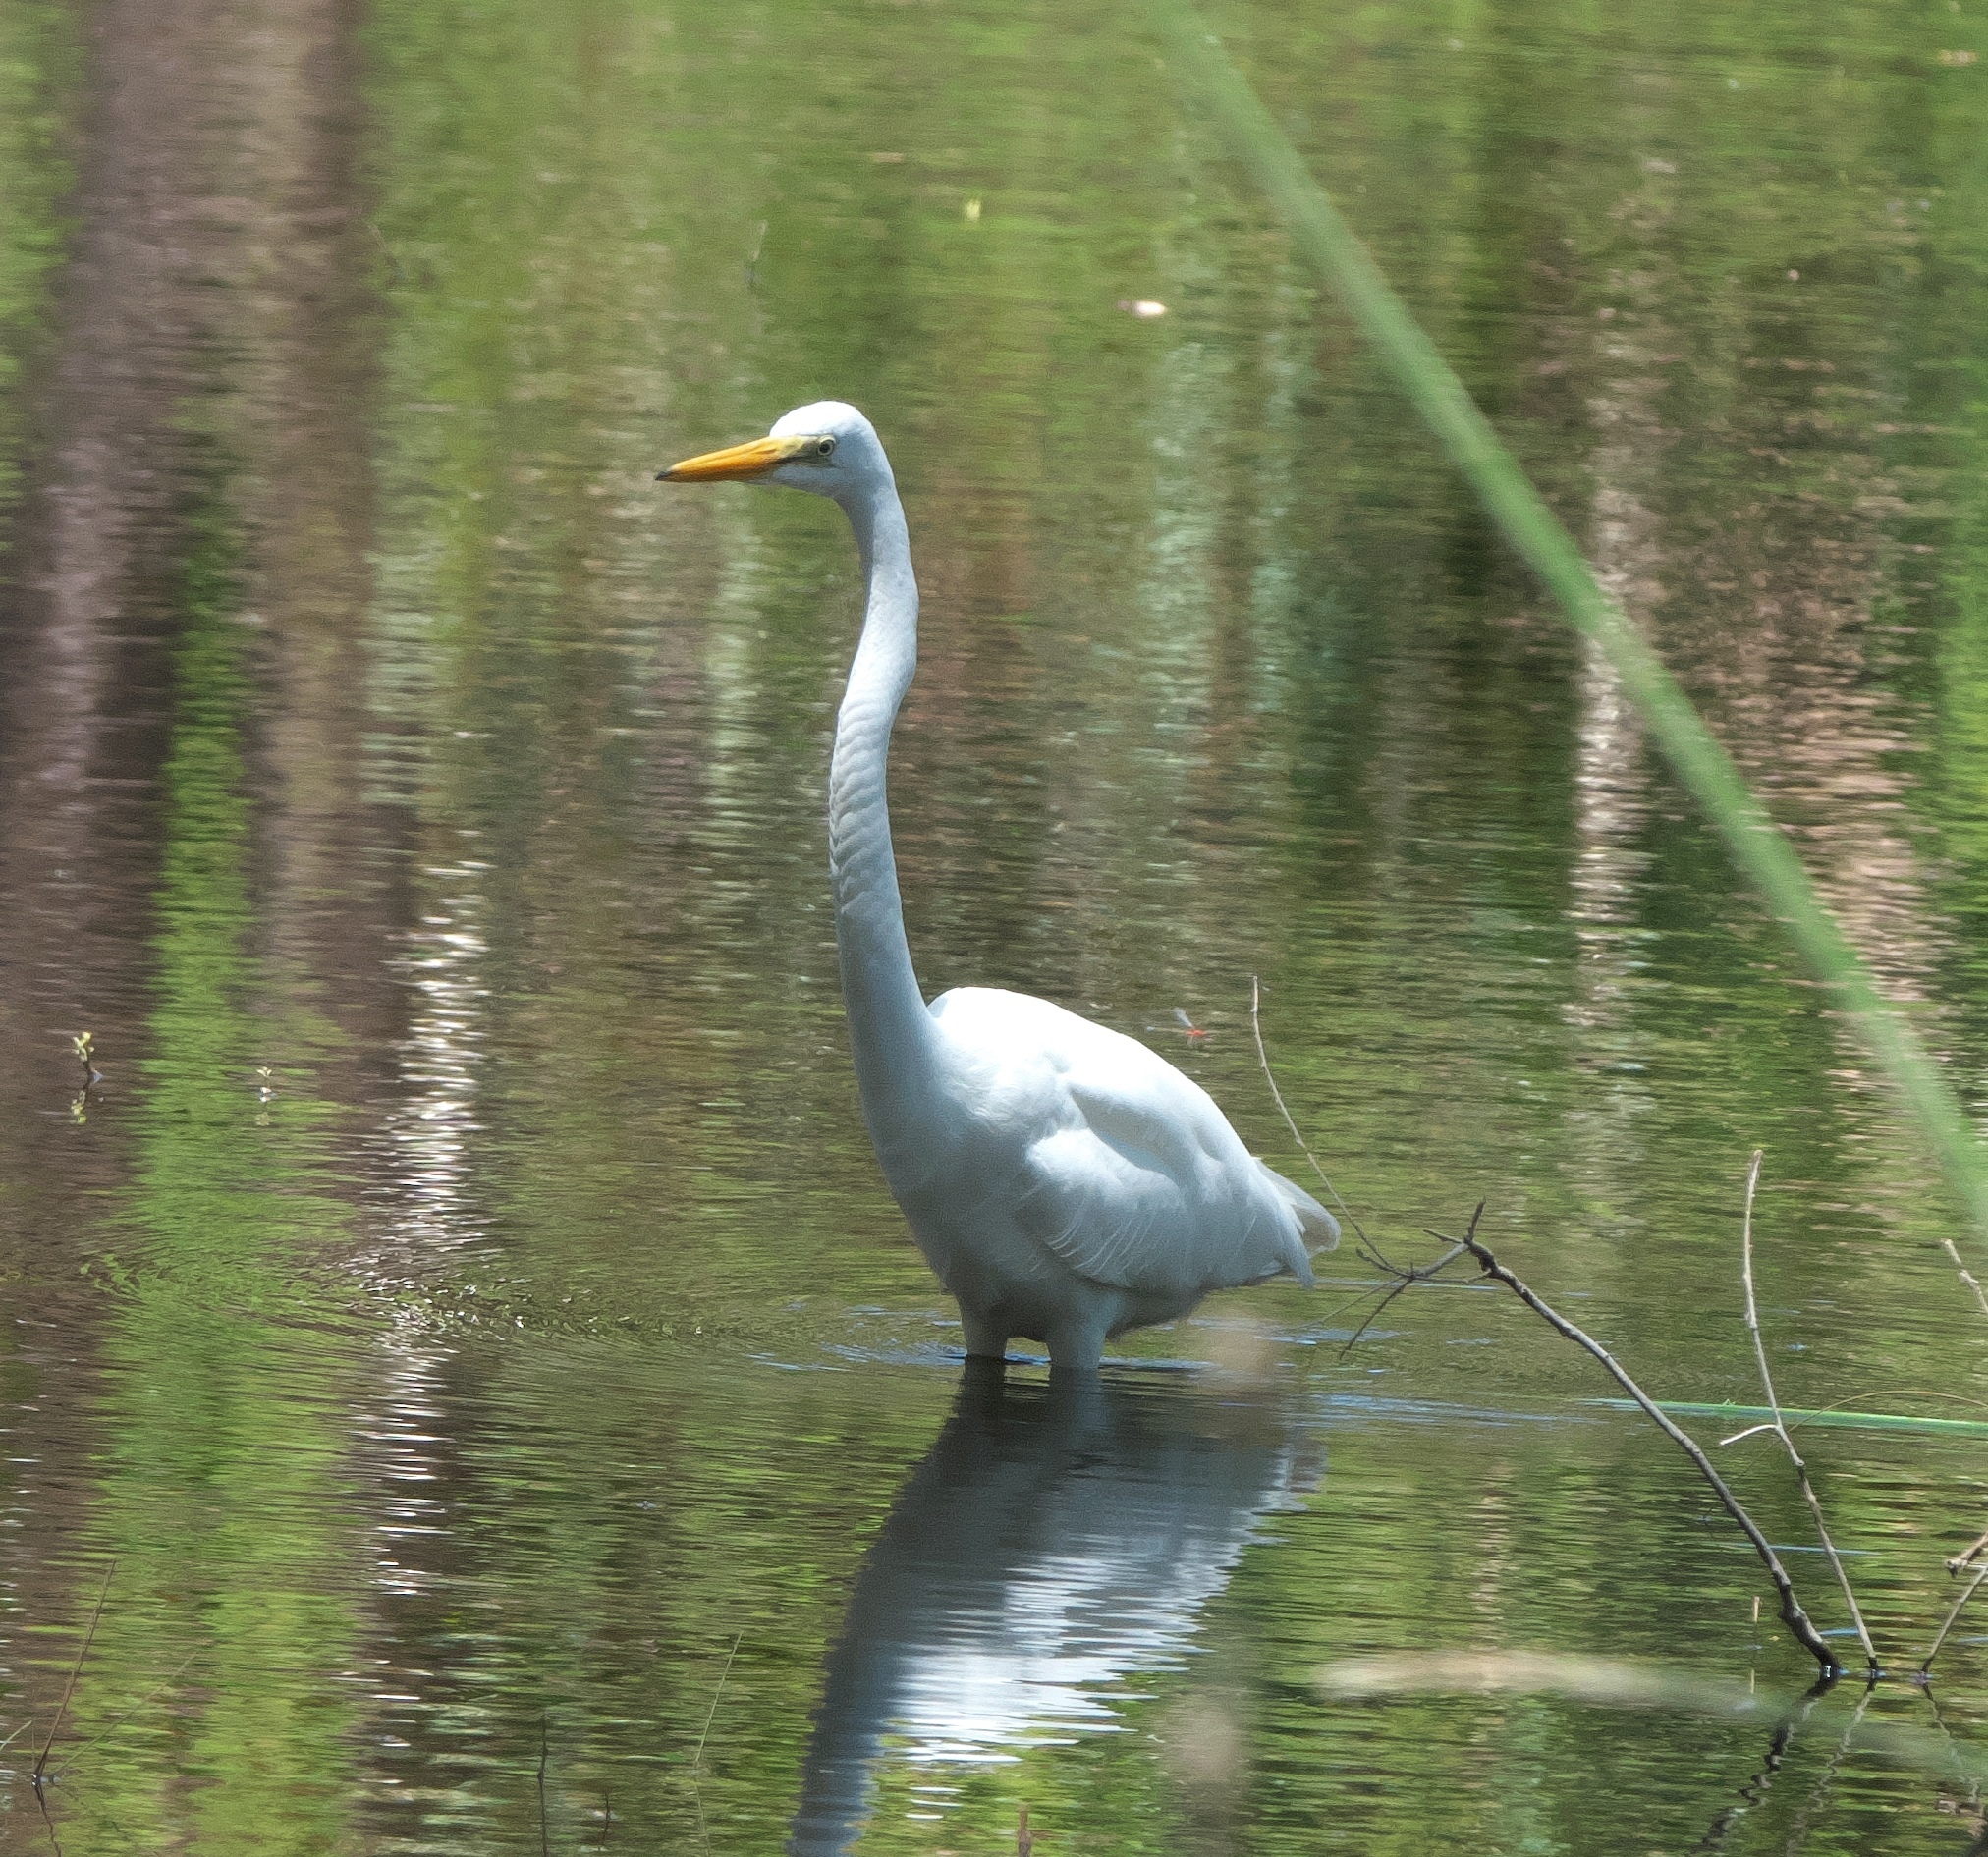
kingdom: Animalia
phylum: Chordata
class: Aves
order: Pelecaniformes
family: Ardeidae
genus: Ardea
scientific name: Ardea alba
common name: Great egret
